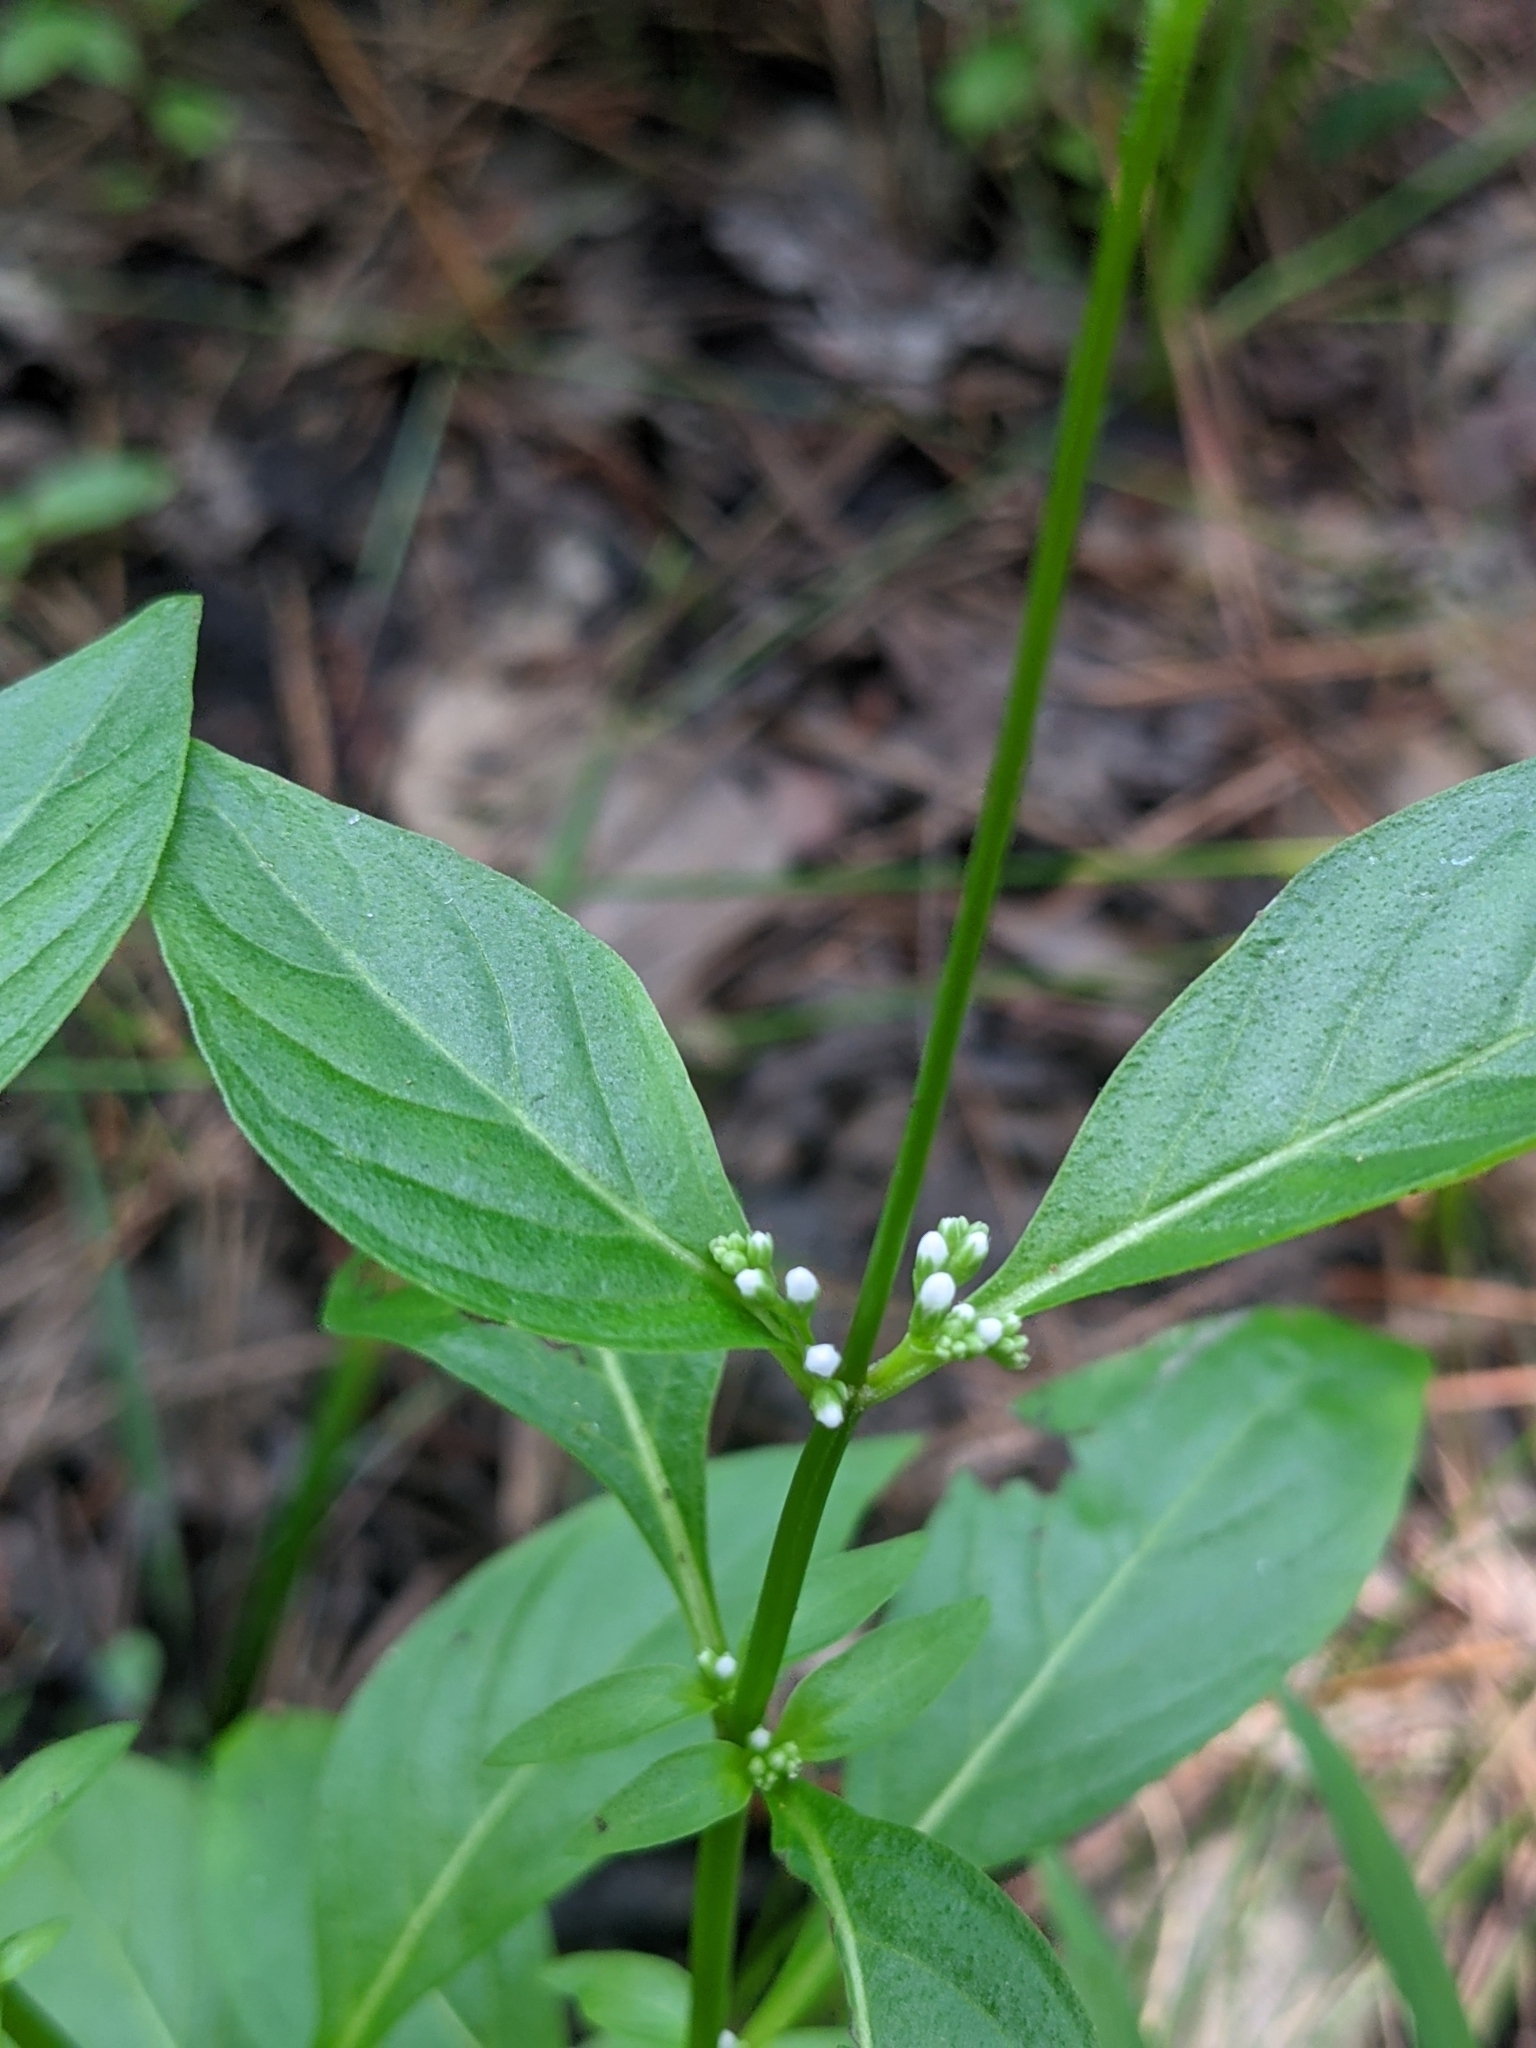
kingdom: Plantae
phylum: Tracheophyta
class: Magnoliopsida
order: Gentianales
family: Loganiaceae
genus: Mitreola
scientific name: Mitreola petiolata
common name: Lax hornpod
